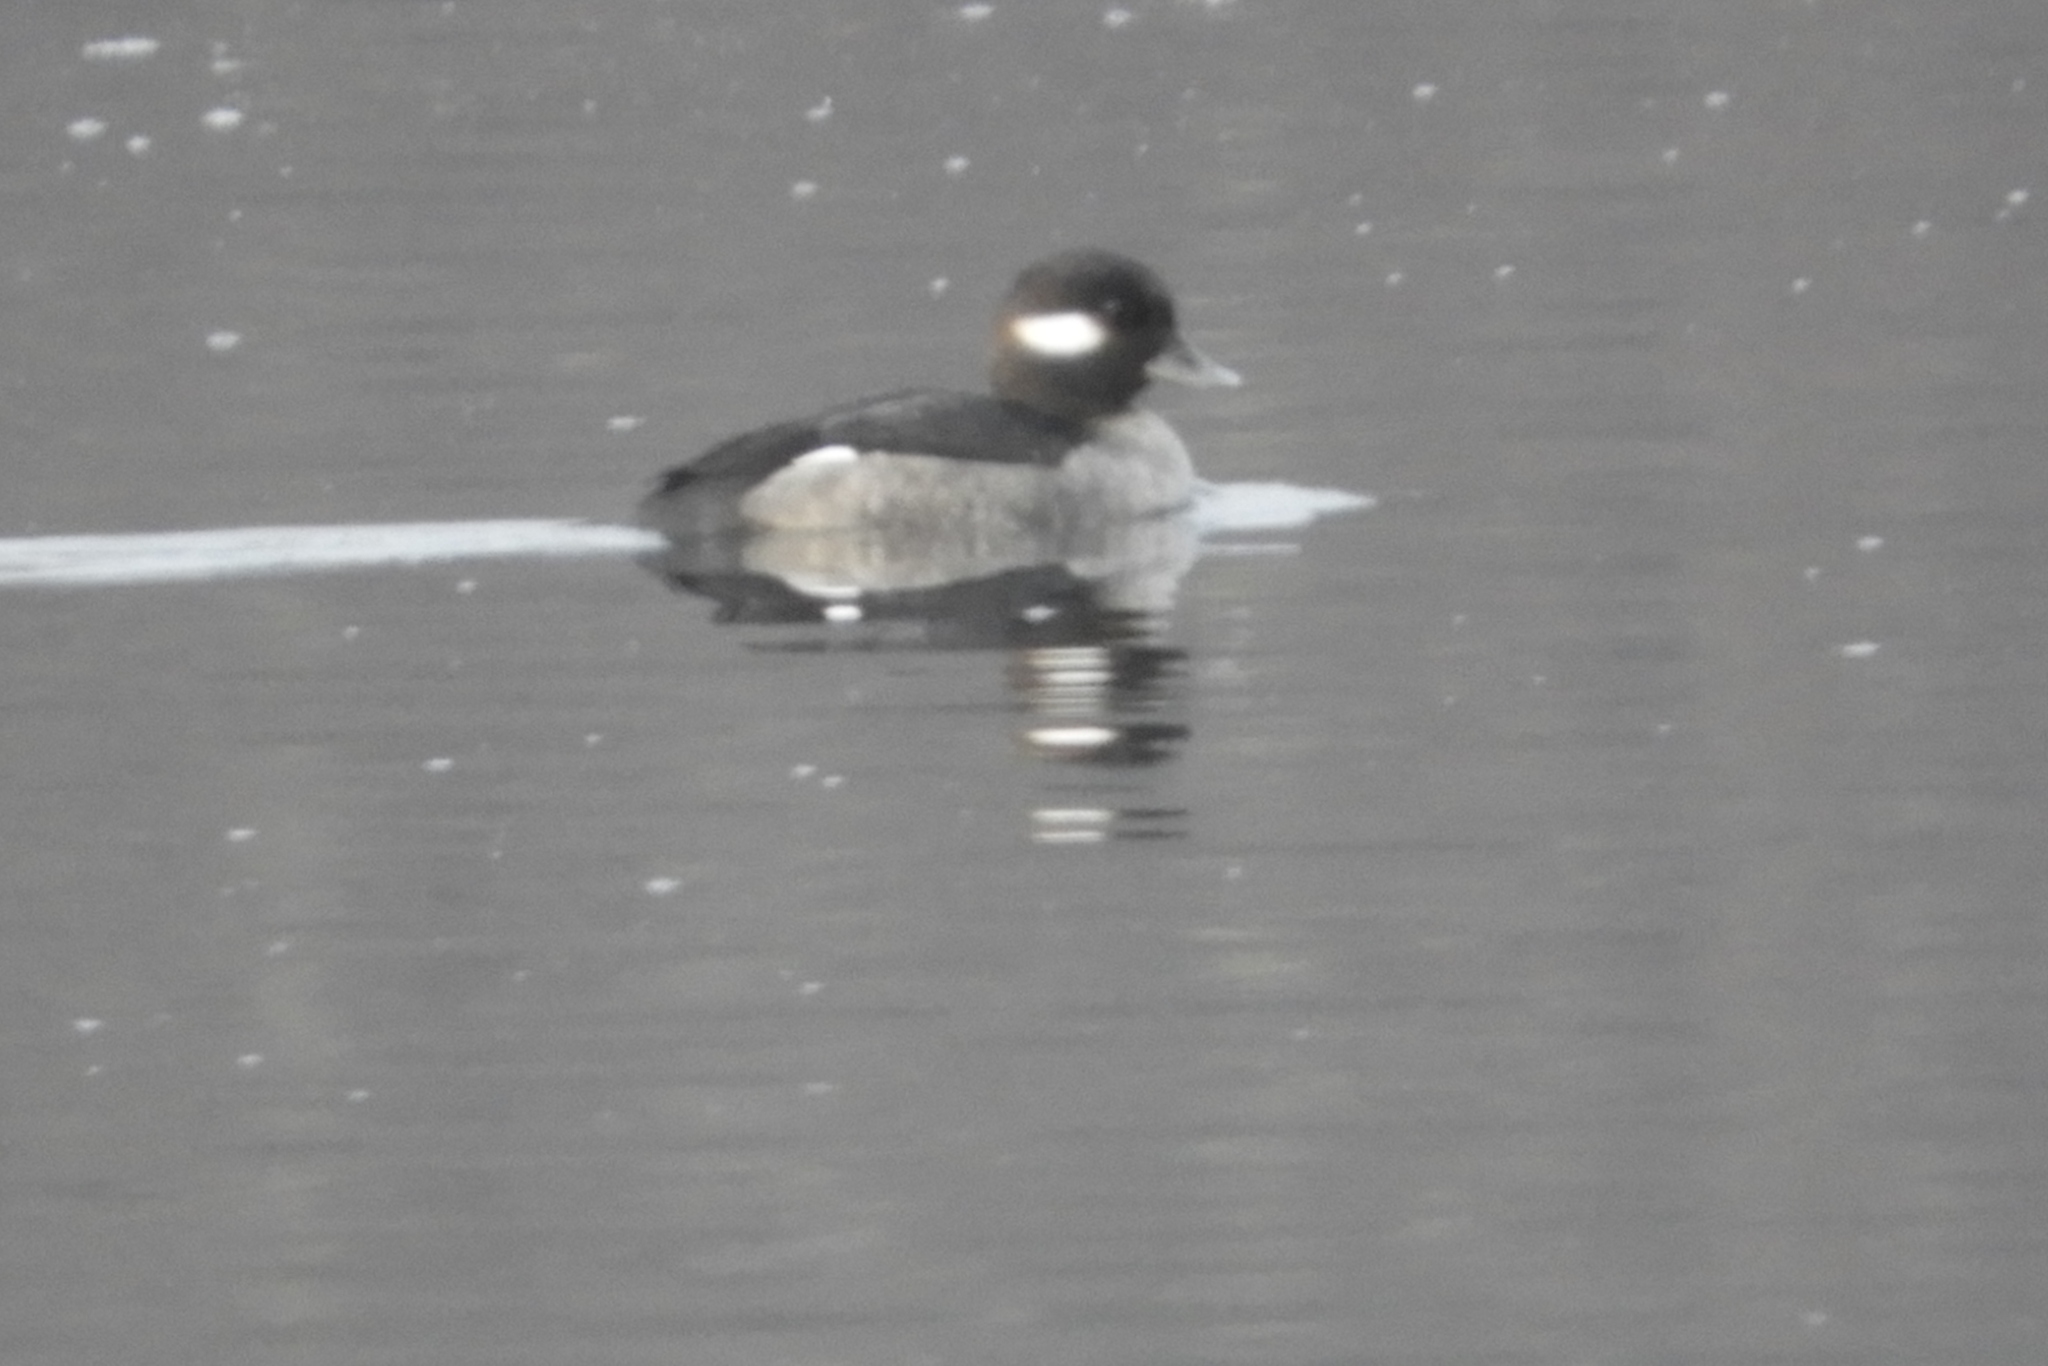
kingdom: Animalia
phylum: Chordata
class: Aves
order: Anseriformes
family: Anatidae
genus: Bucephala
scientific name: Bucephala albeola
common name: Bufflehead
